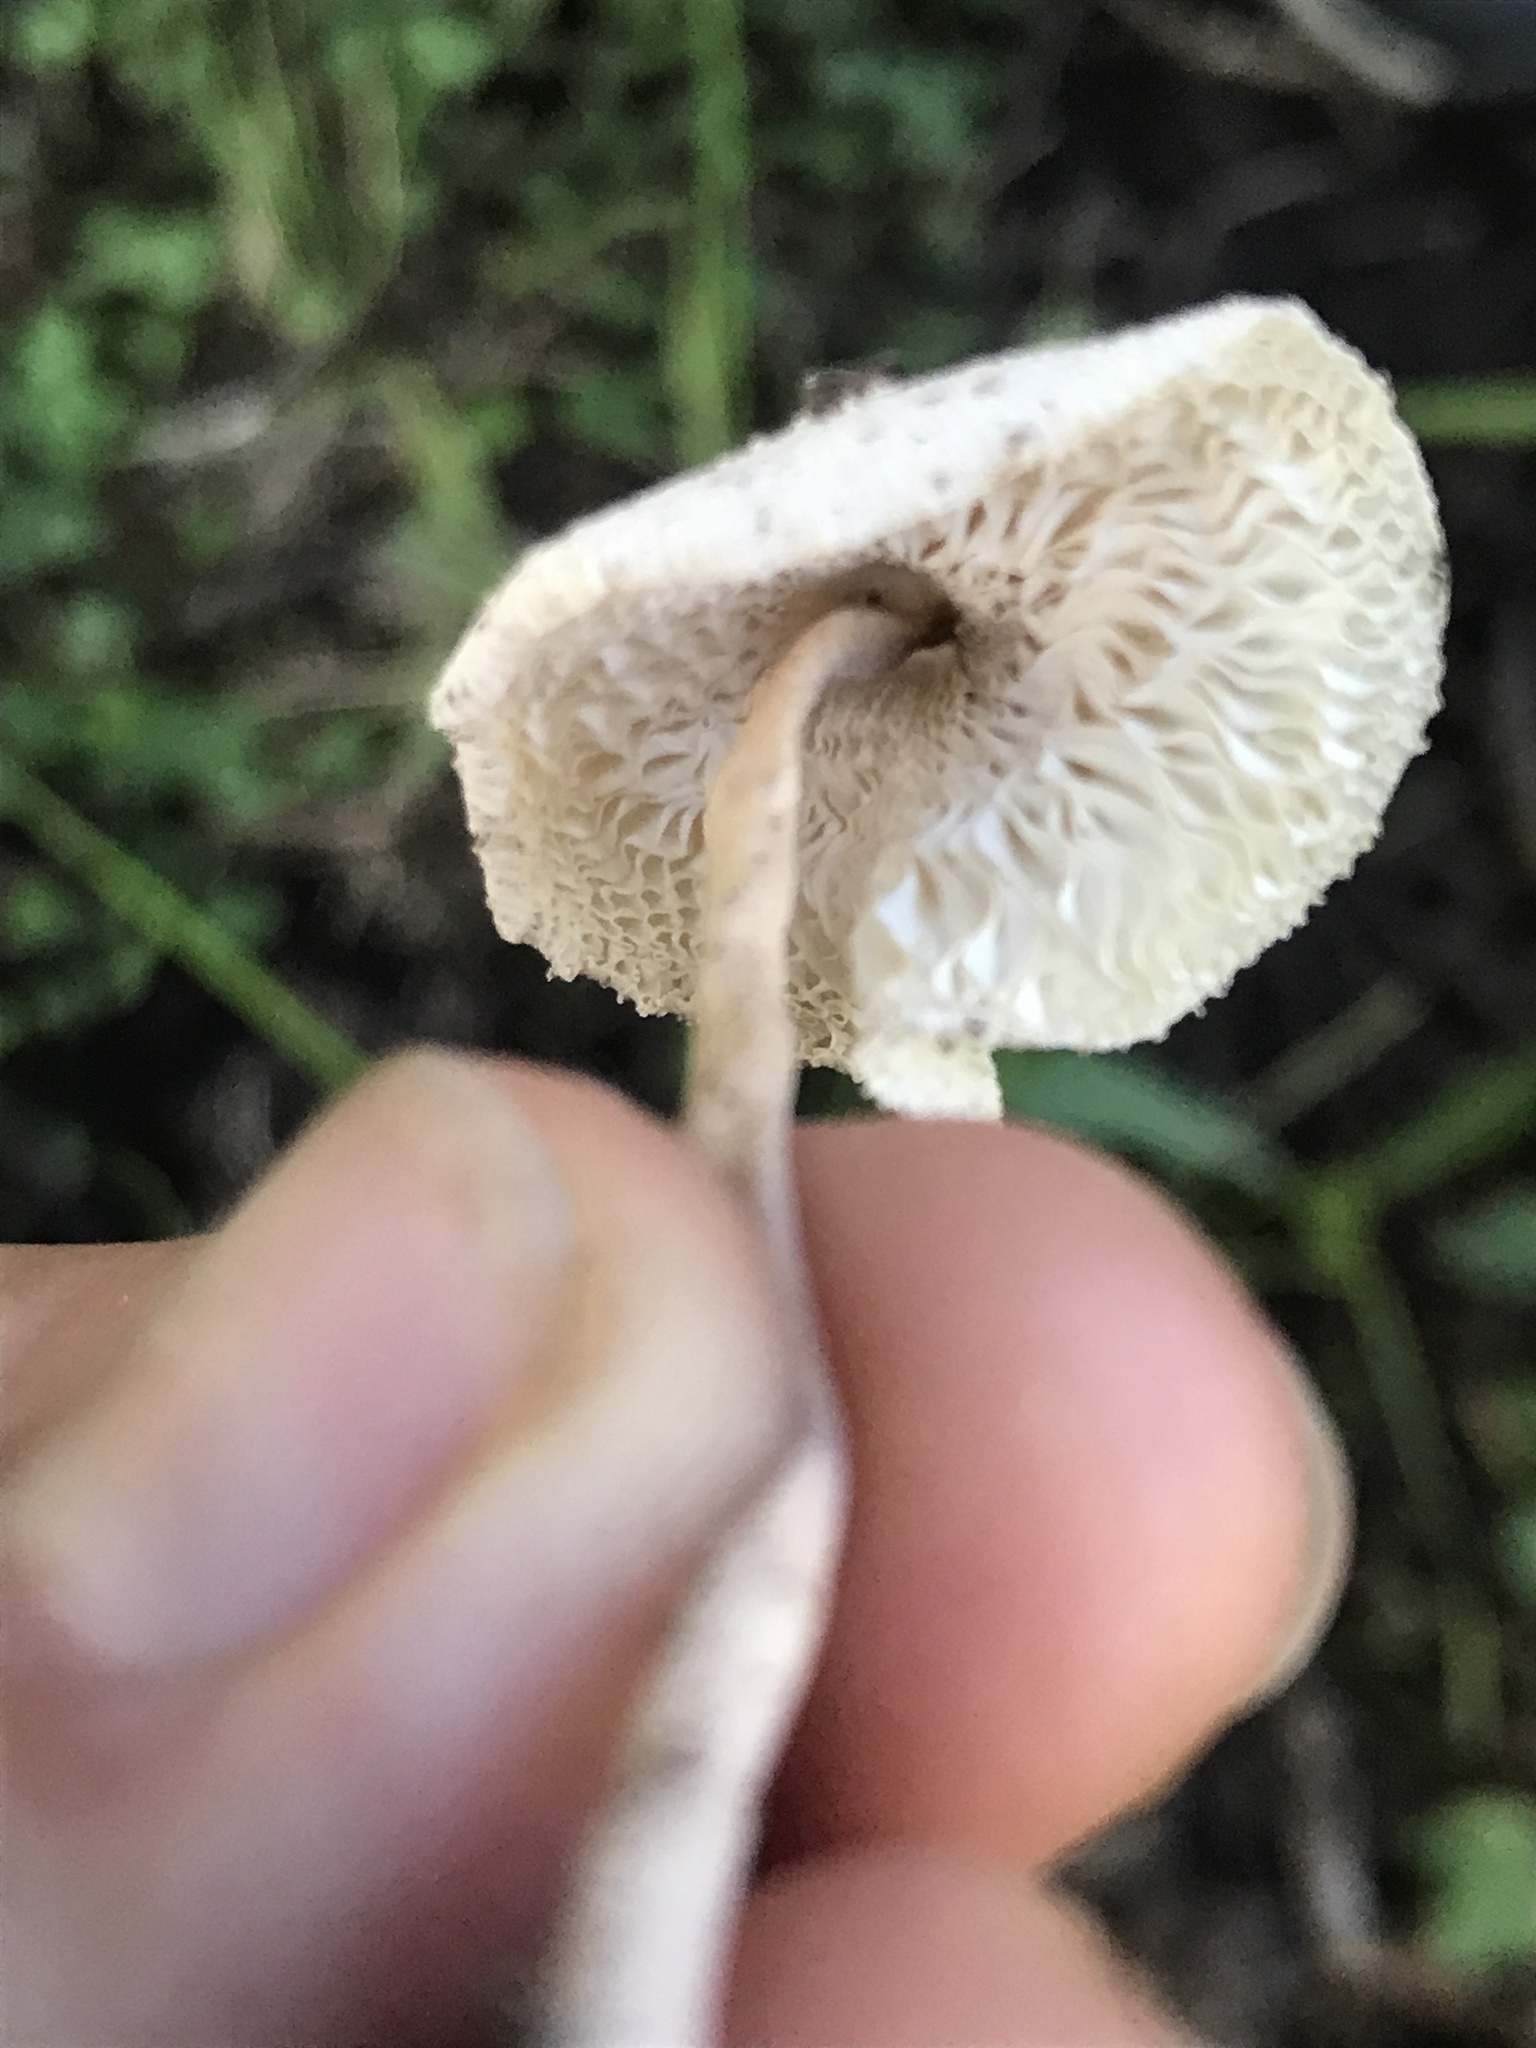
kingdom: Fungi
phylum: Basidiomycota
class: Agaricomycetes
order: Agaricales
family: Agaricaceae
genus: Leucocoprinus
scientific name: Leucocoprinus cepistipes
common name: Onion-stalk parasol
